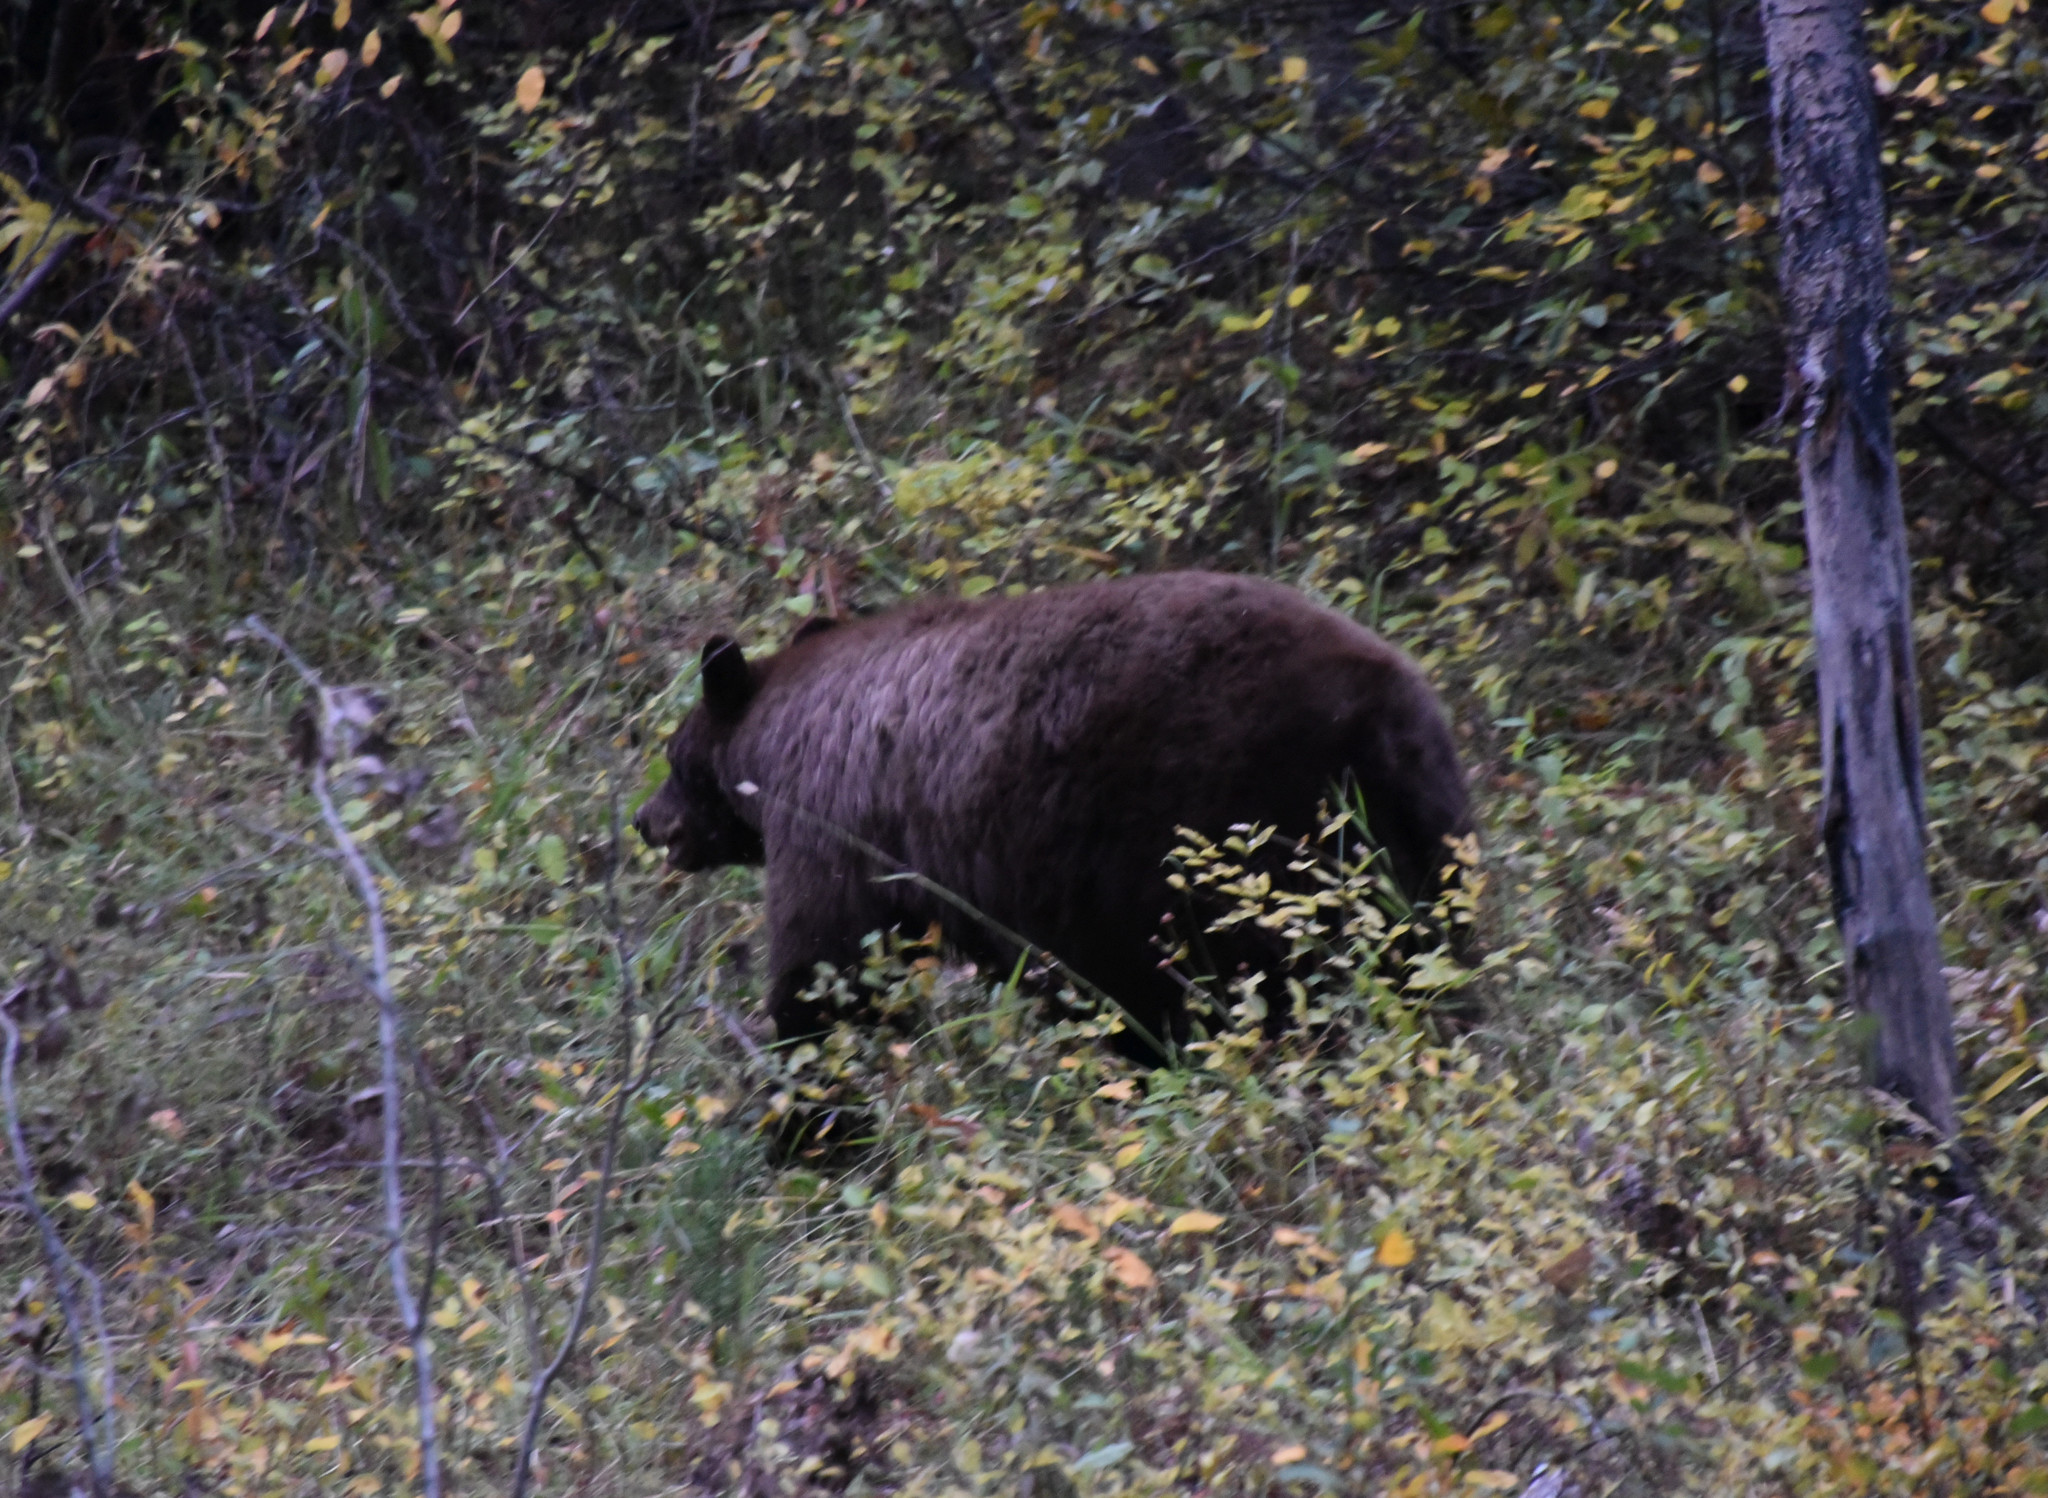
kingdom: Animalia
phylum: Chordata
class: Mammalia
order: Carnivora
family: Ursidae
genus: Ursus
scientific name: Ursus americanus
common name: American black bear
